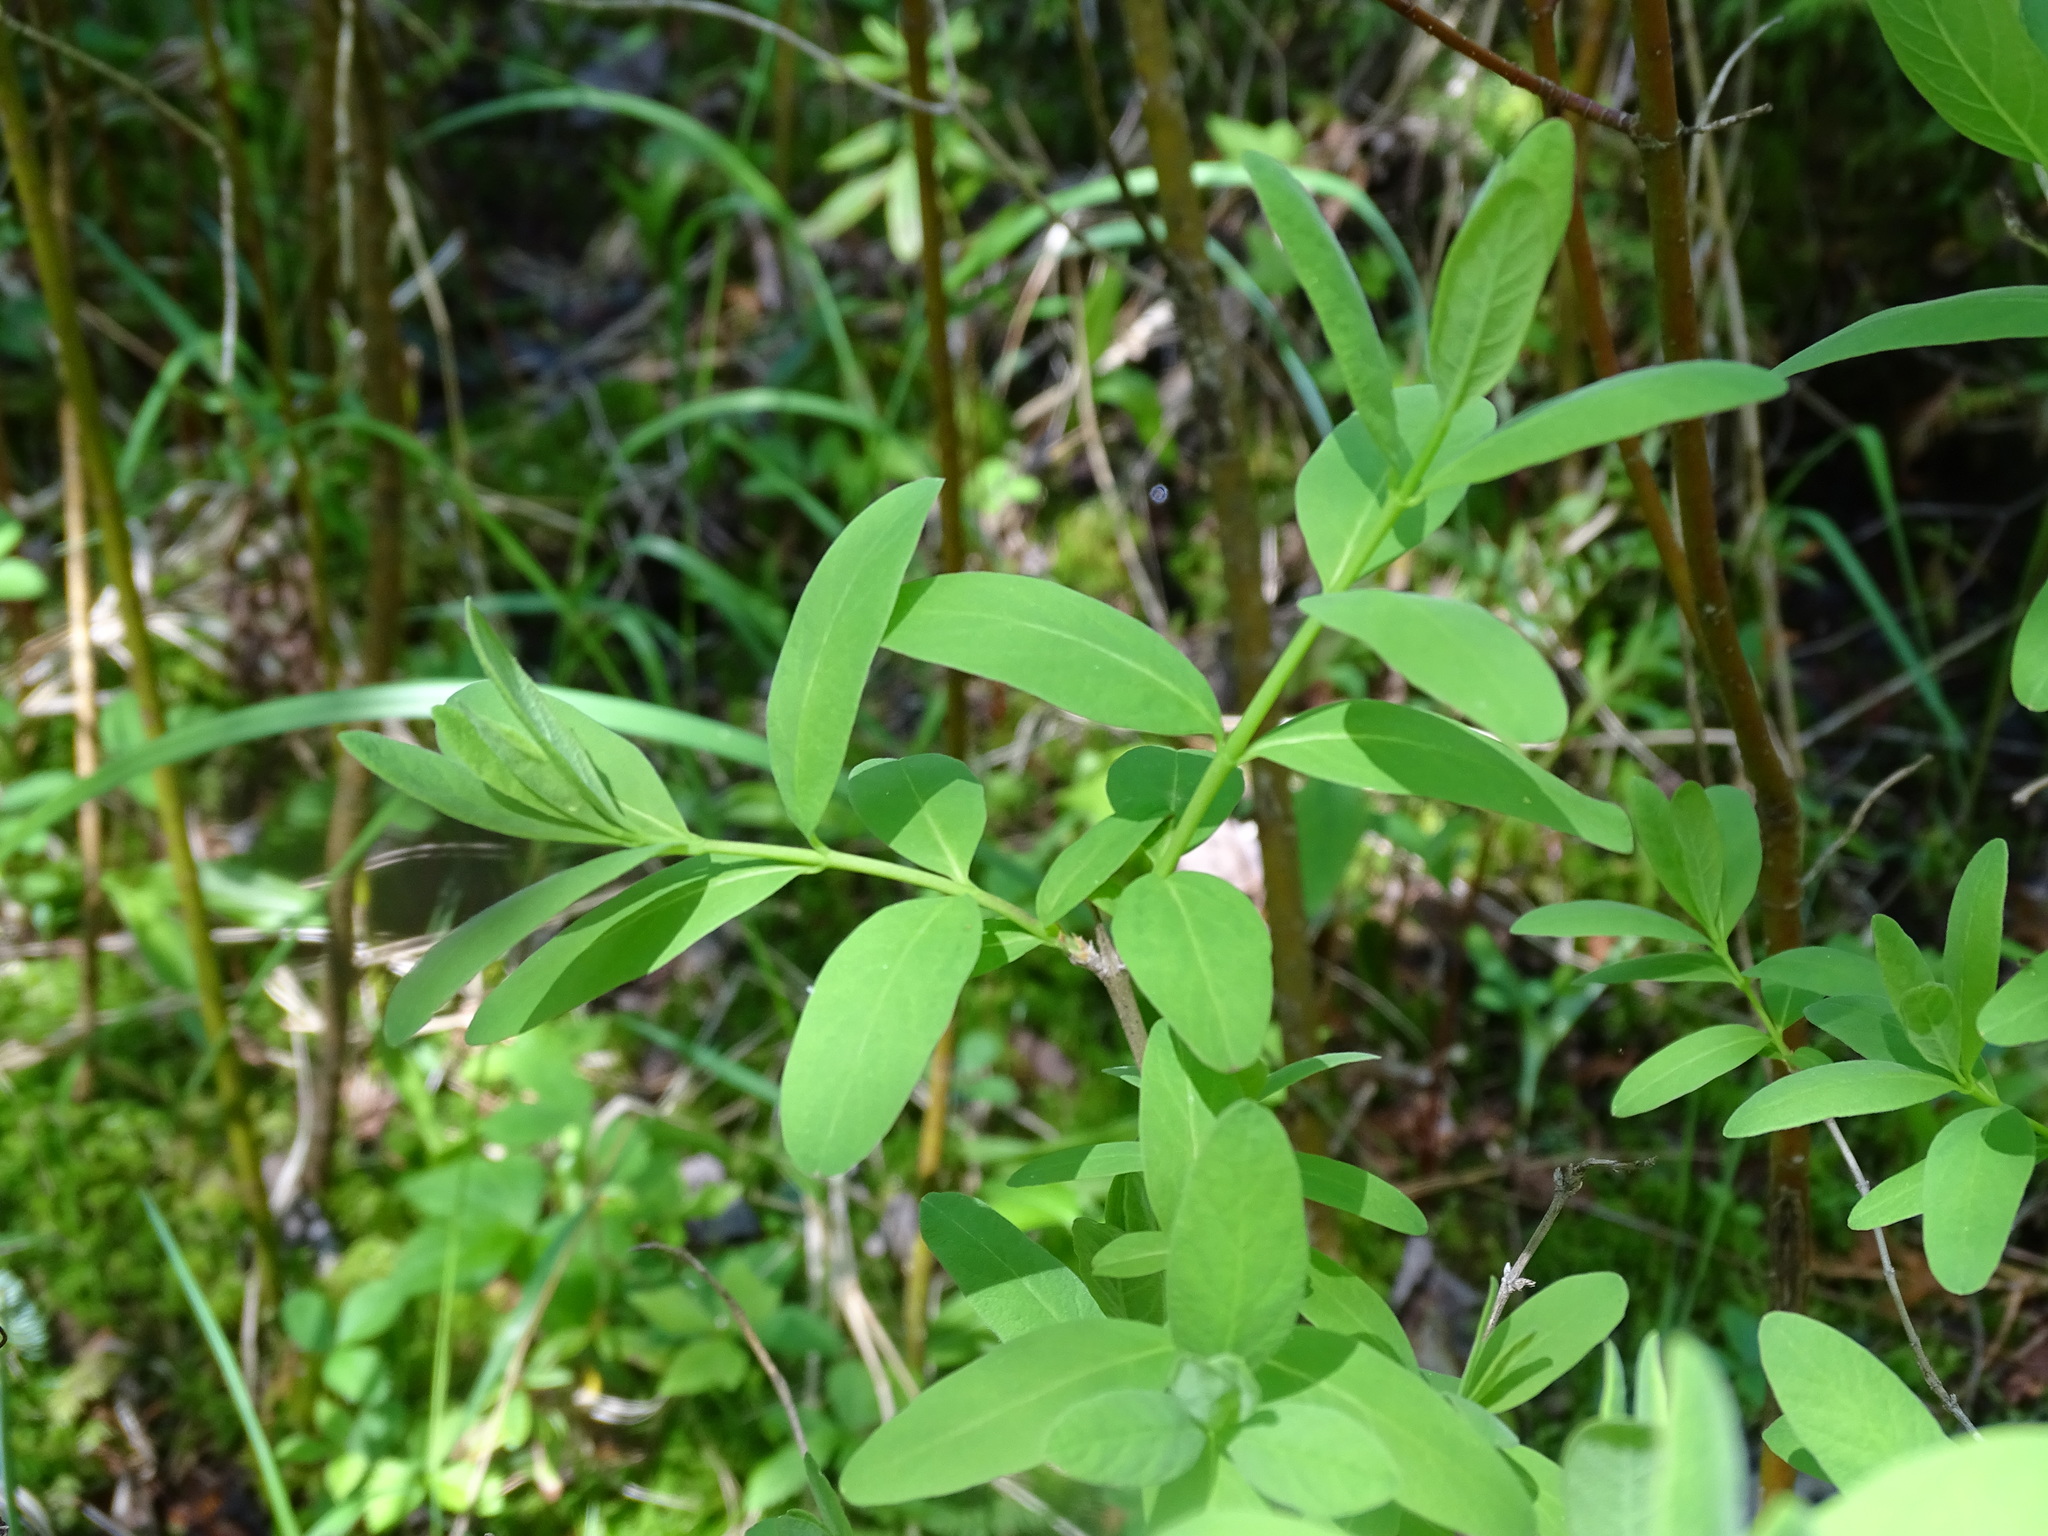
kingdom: Plantae
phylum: Tracheophyta
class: Magnoliopsida
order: Dipsacales
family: Caprifoliaceae
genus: Lonicera
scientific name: Lonicera oblongifolia
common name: Swamp fly honeysuckle
